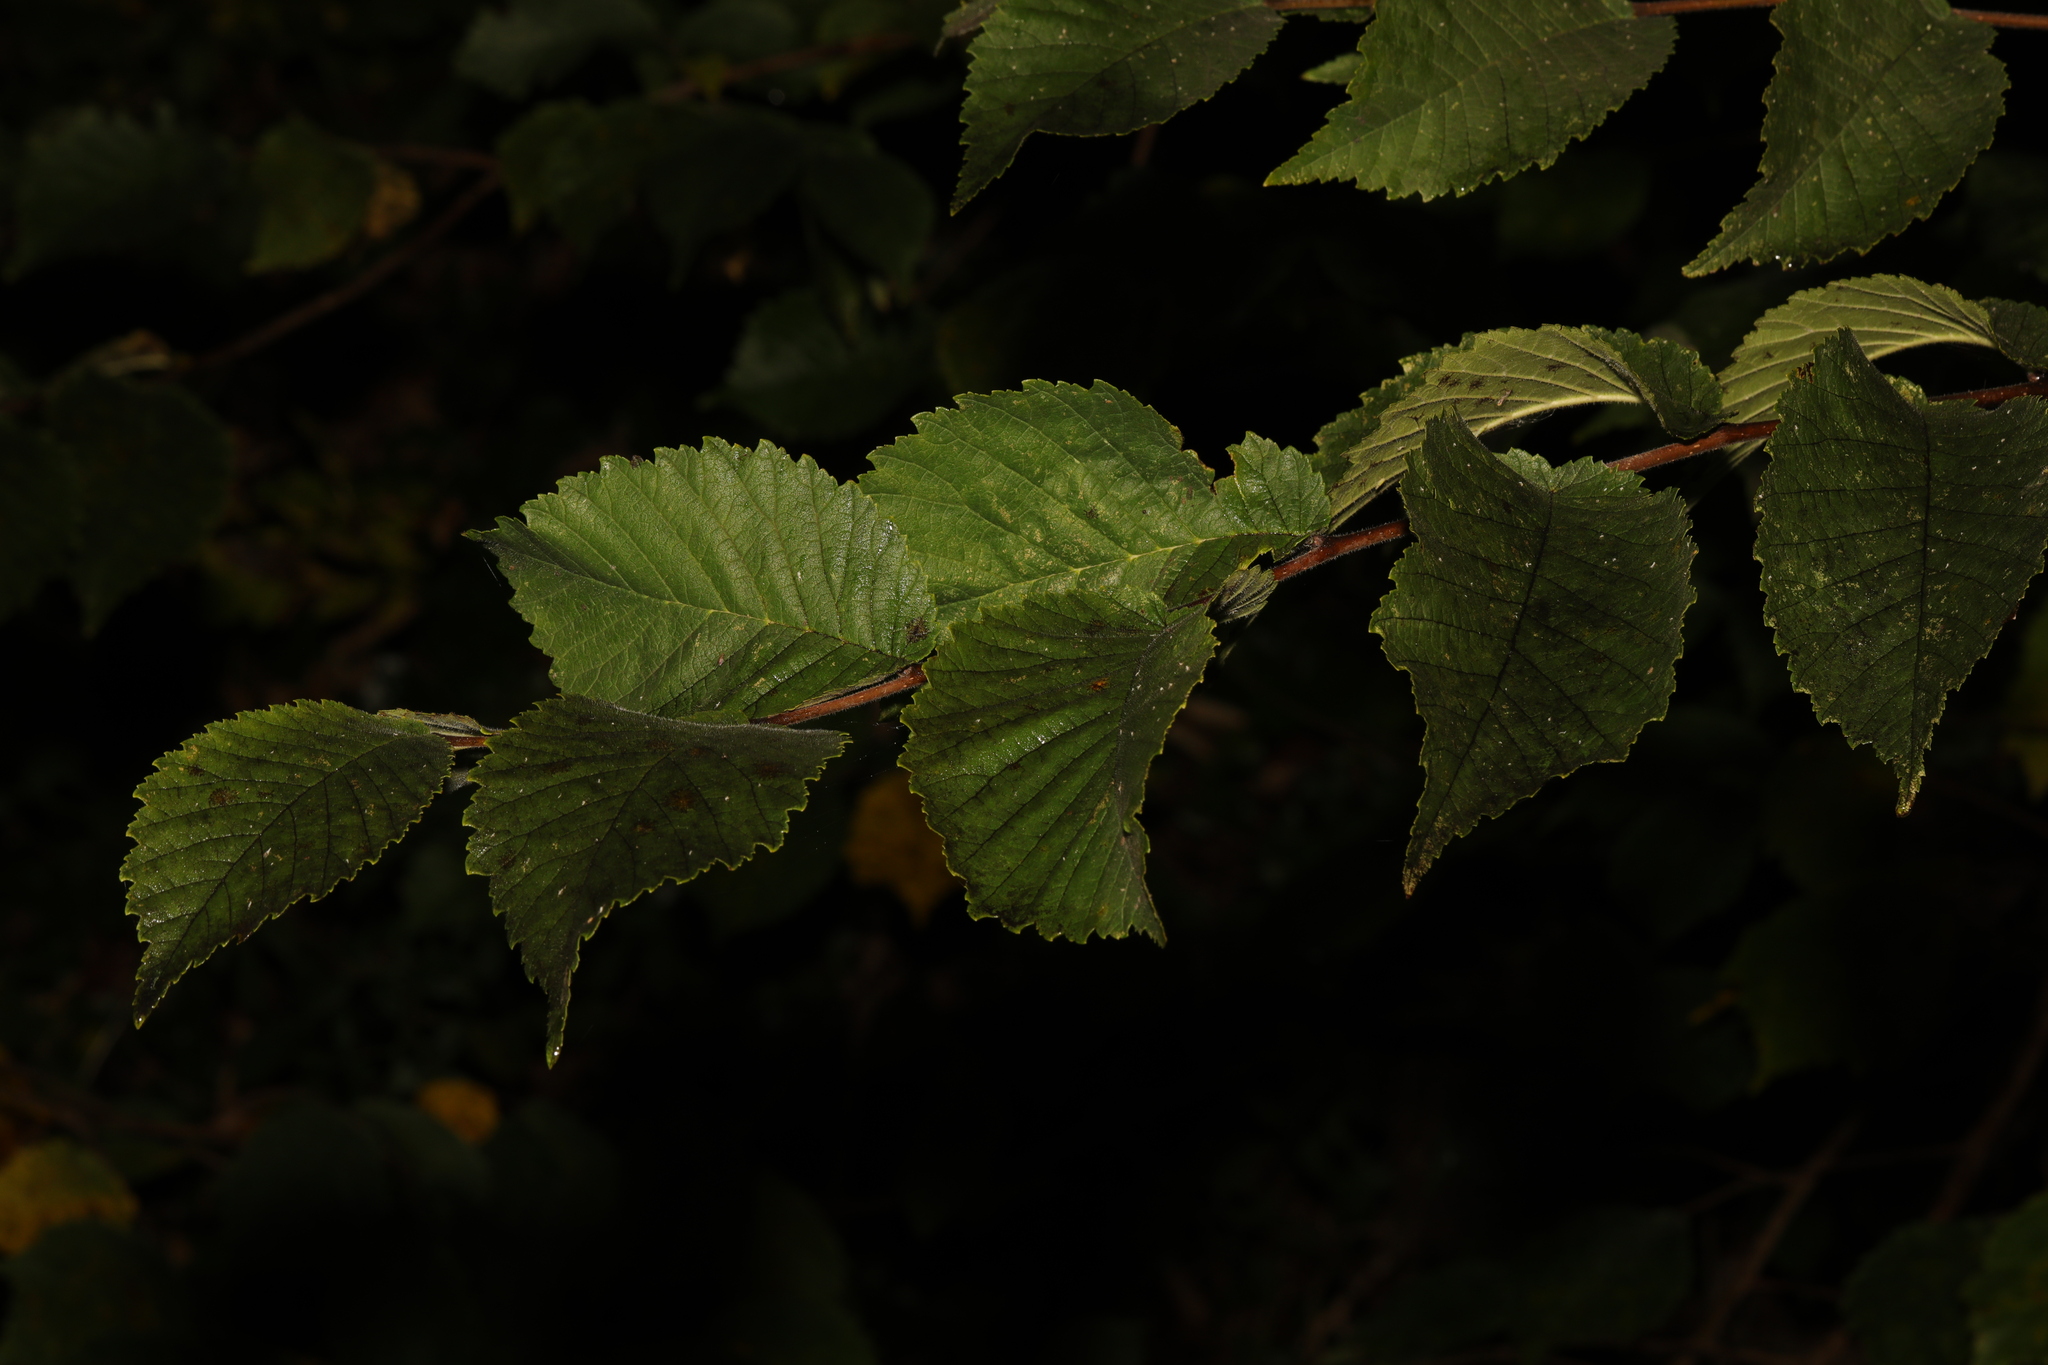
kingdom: Plantae
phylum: Tracheophyta
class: Magnoliopsida
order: Rosales
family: Ulmaceae
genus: Ulmus
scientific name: Ulmus minor
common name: Small-leaved elm
